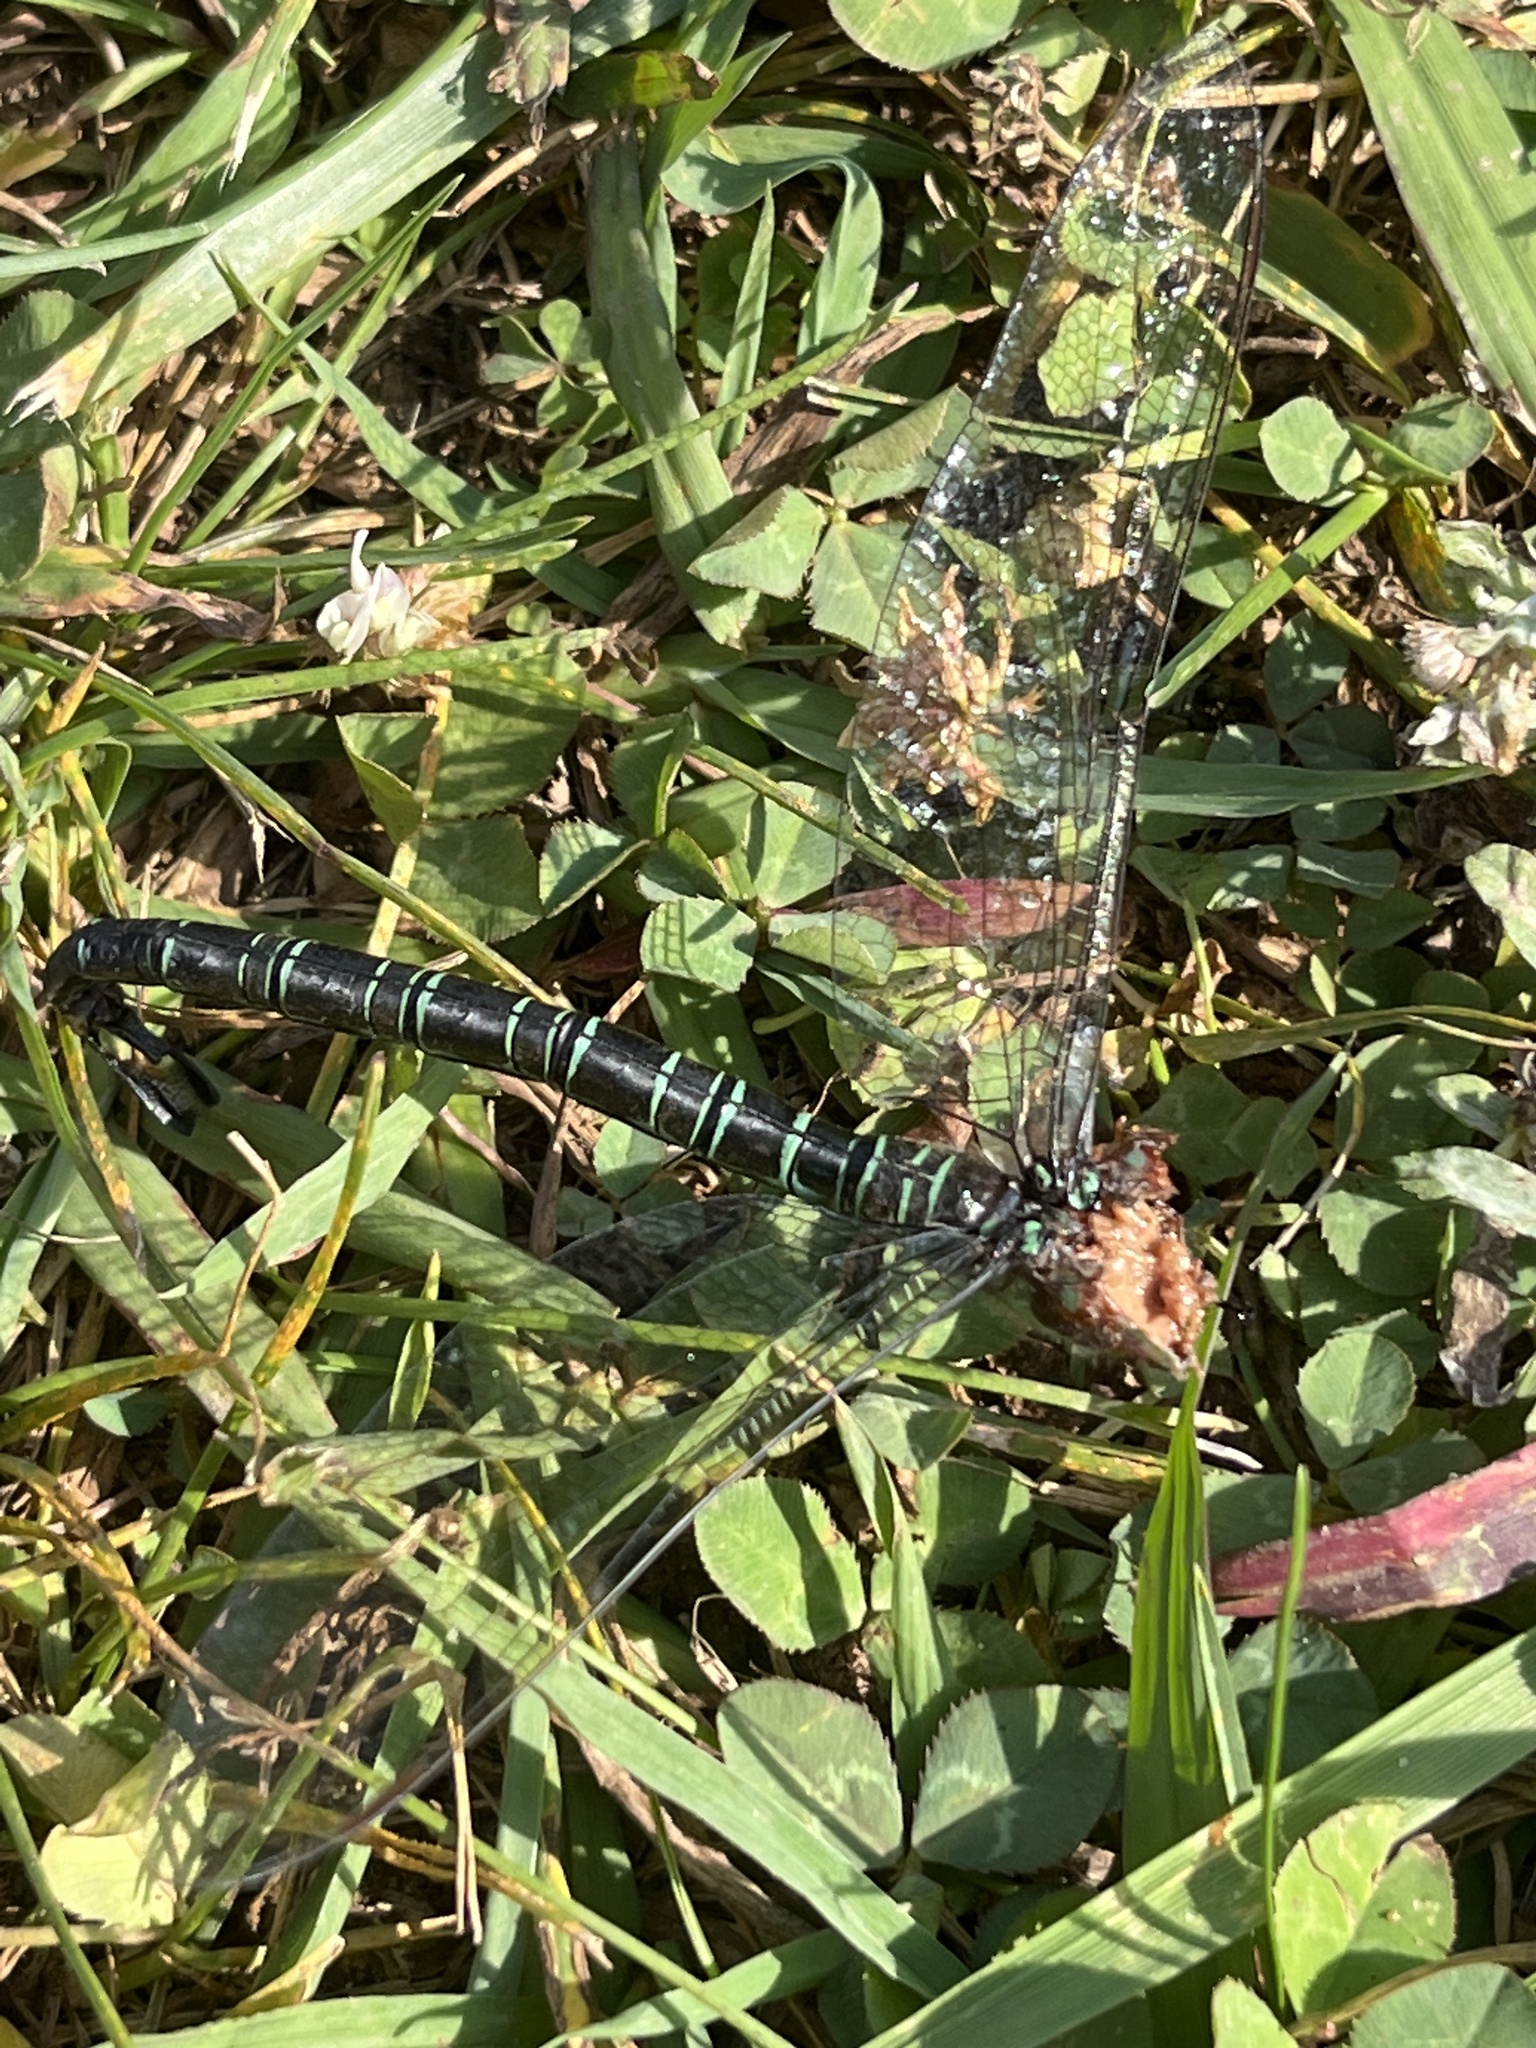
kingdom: Animalia
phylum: Arthropoda
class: Insecta
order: Odonata
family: Aeshnidae
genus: Epiaeschna
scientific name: Epiaeschna heros
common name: Swamp darner
